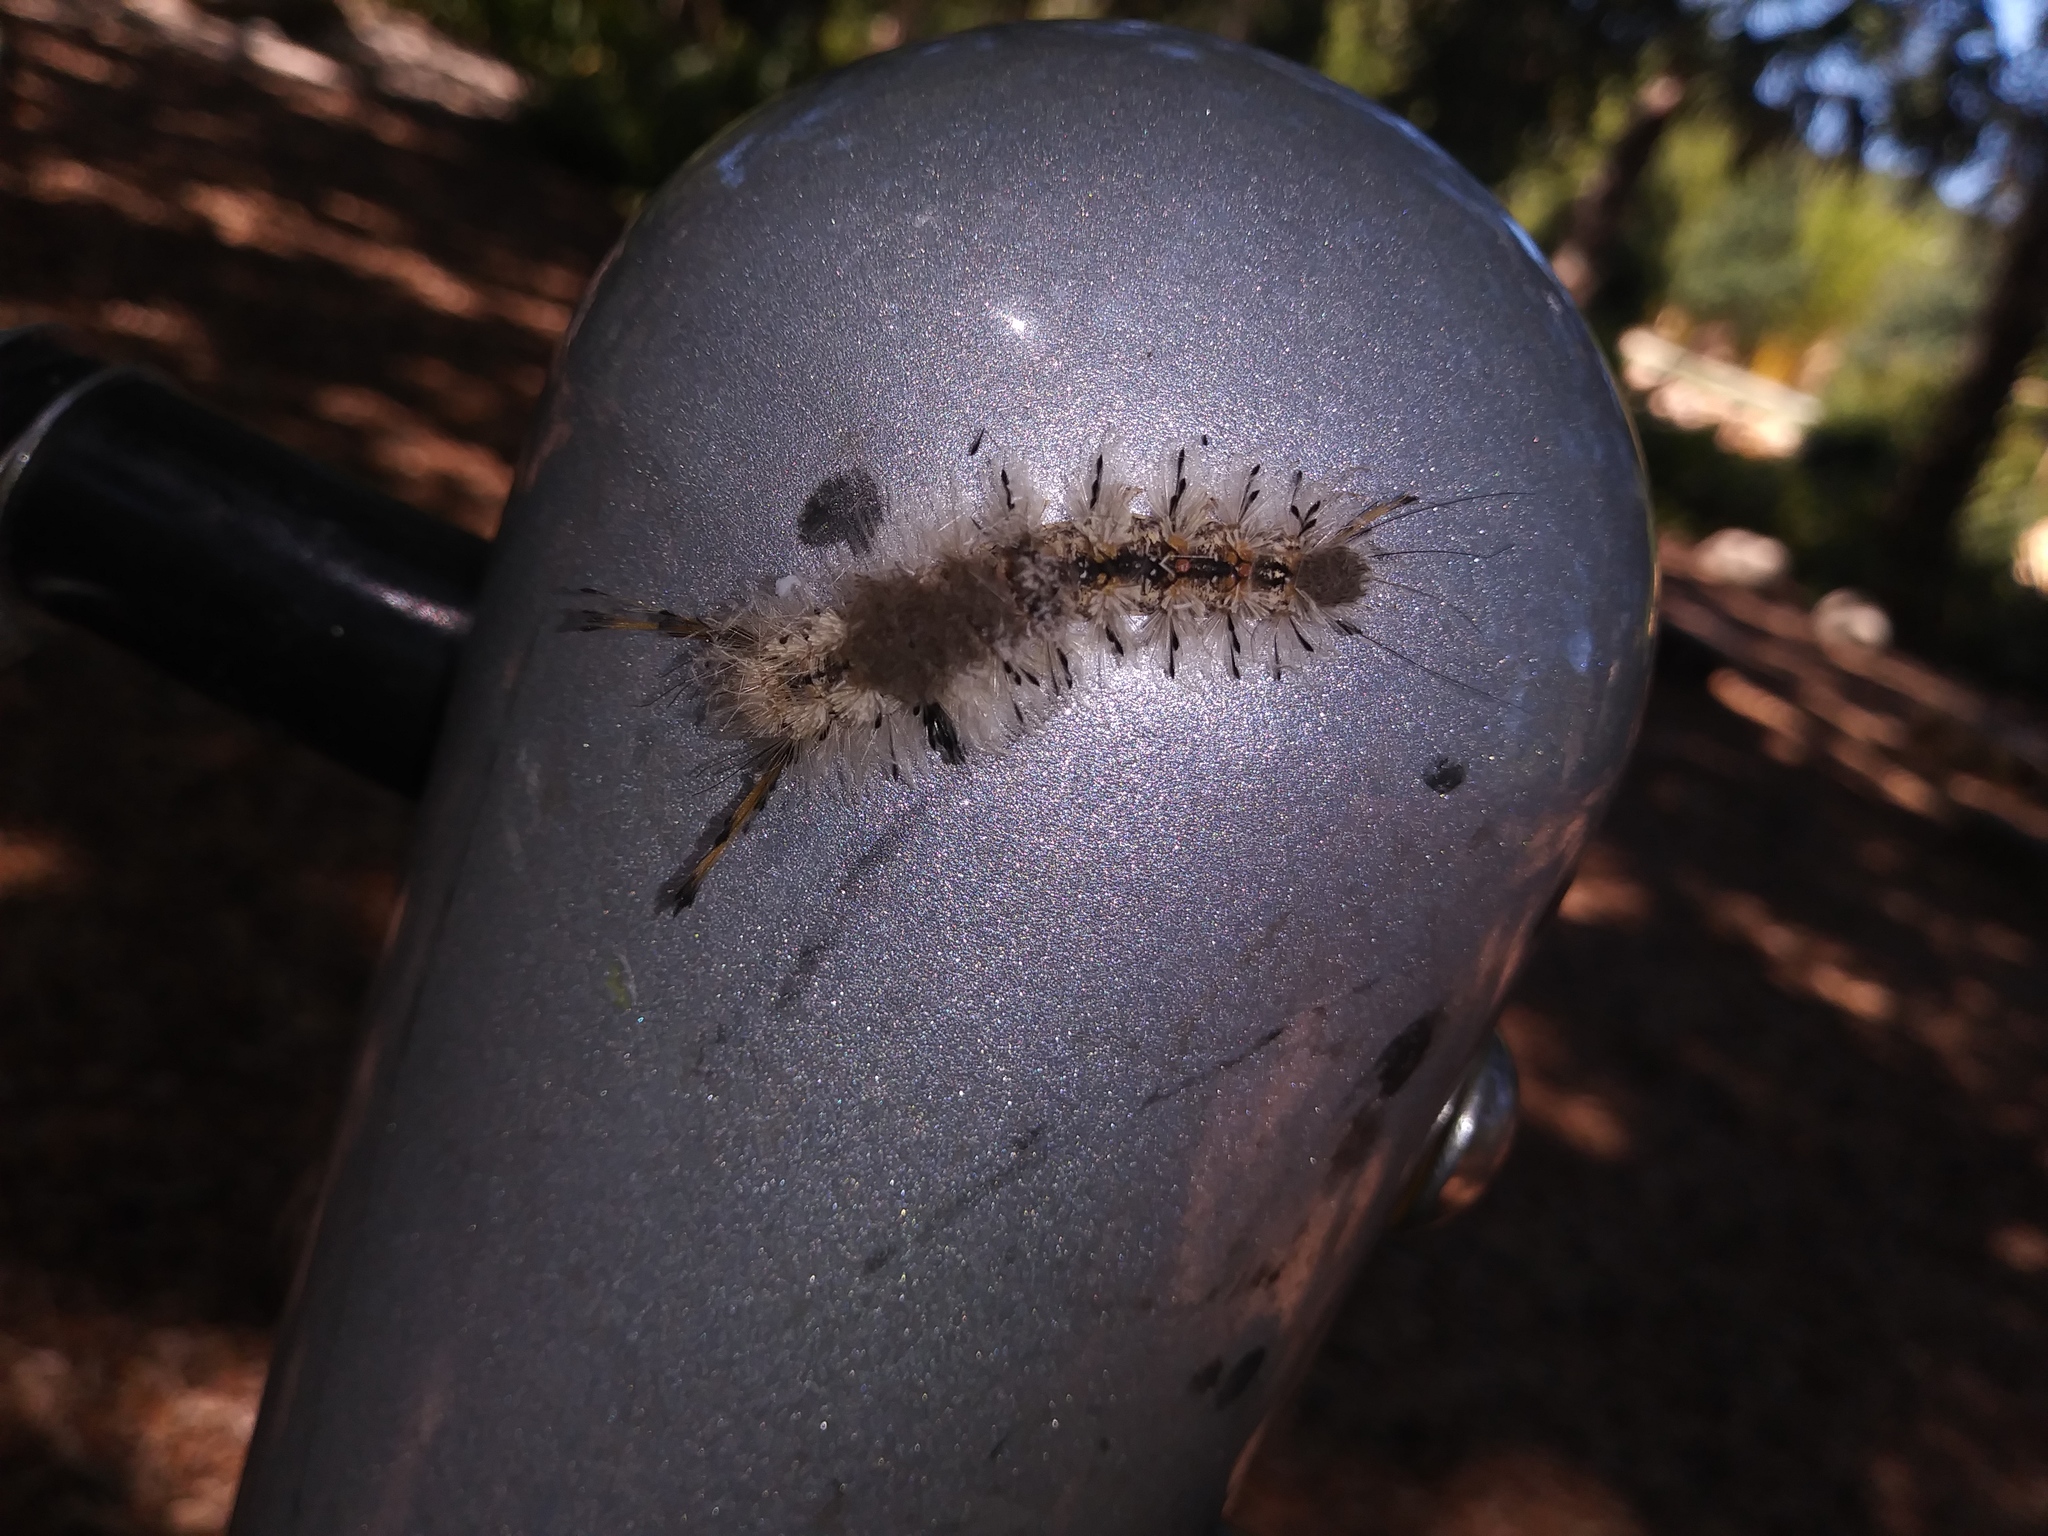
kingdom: Animalia
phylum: Arthropoda
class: Insecta
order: Lepidoptera
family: Erebidae
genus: Dasychira
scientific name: Dasychira meridionalis
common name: Southern tussock moth
